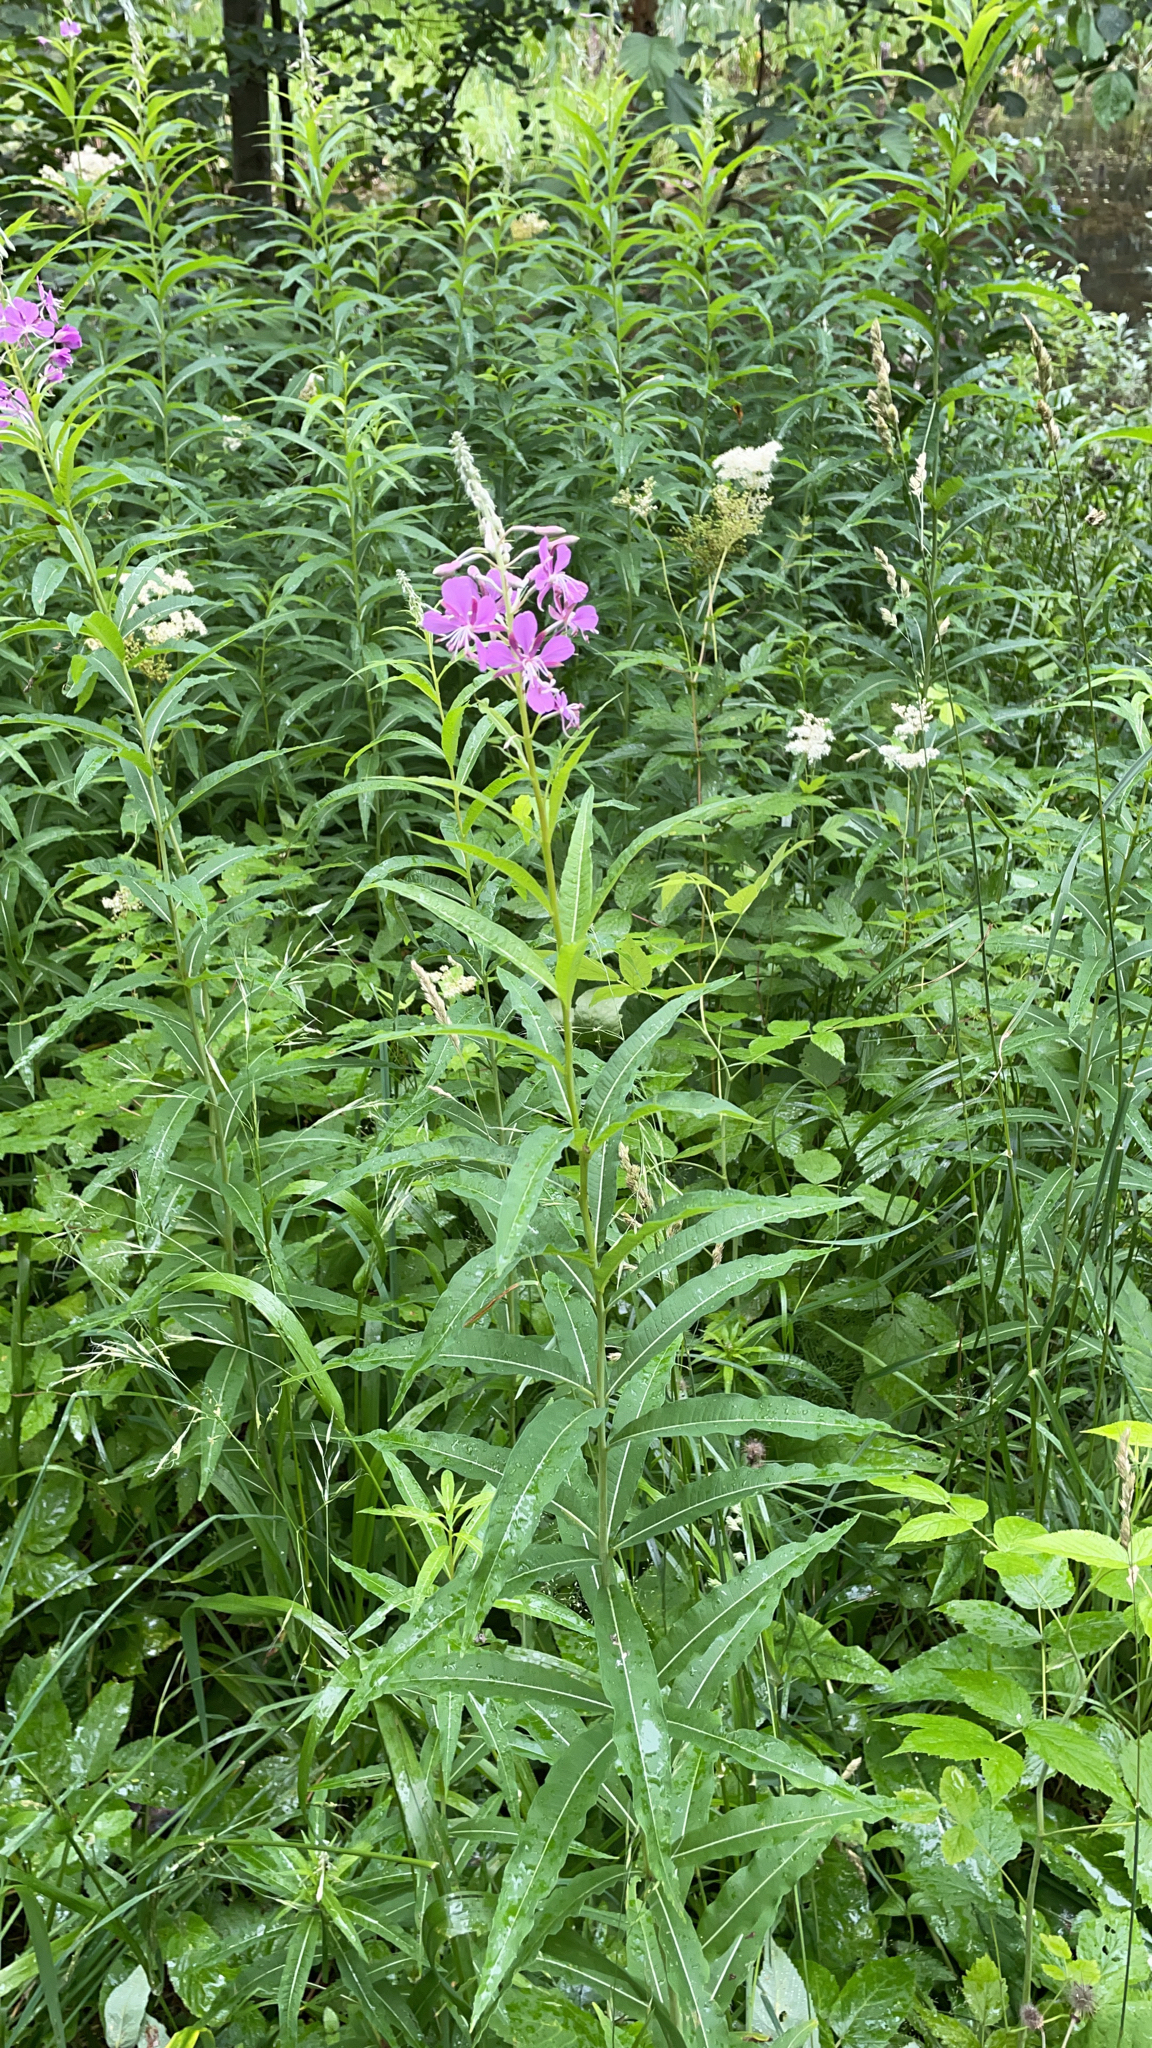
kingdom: Plantae
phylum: Tracheophyta
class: Magnoliopsida
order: Myrtales
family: Onagraceae
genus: Chamaenerion
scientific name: Chamaenerion angustifolium
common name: Fireweed
